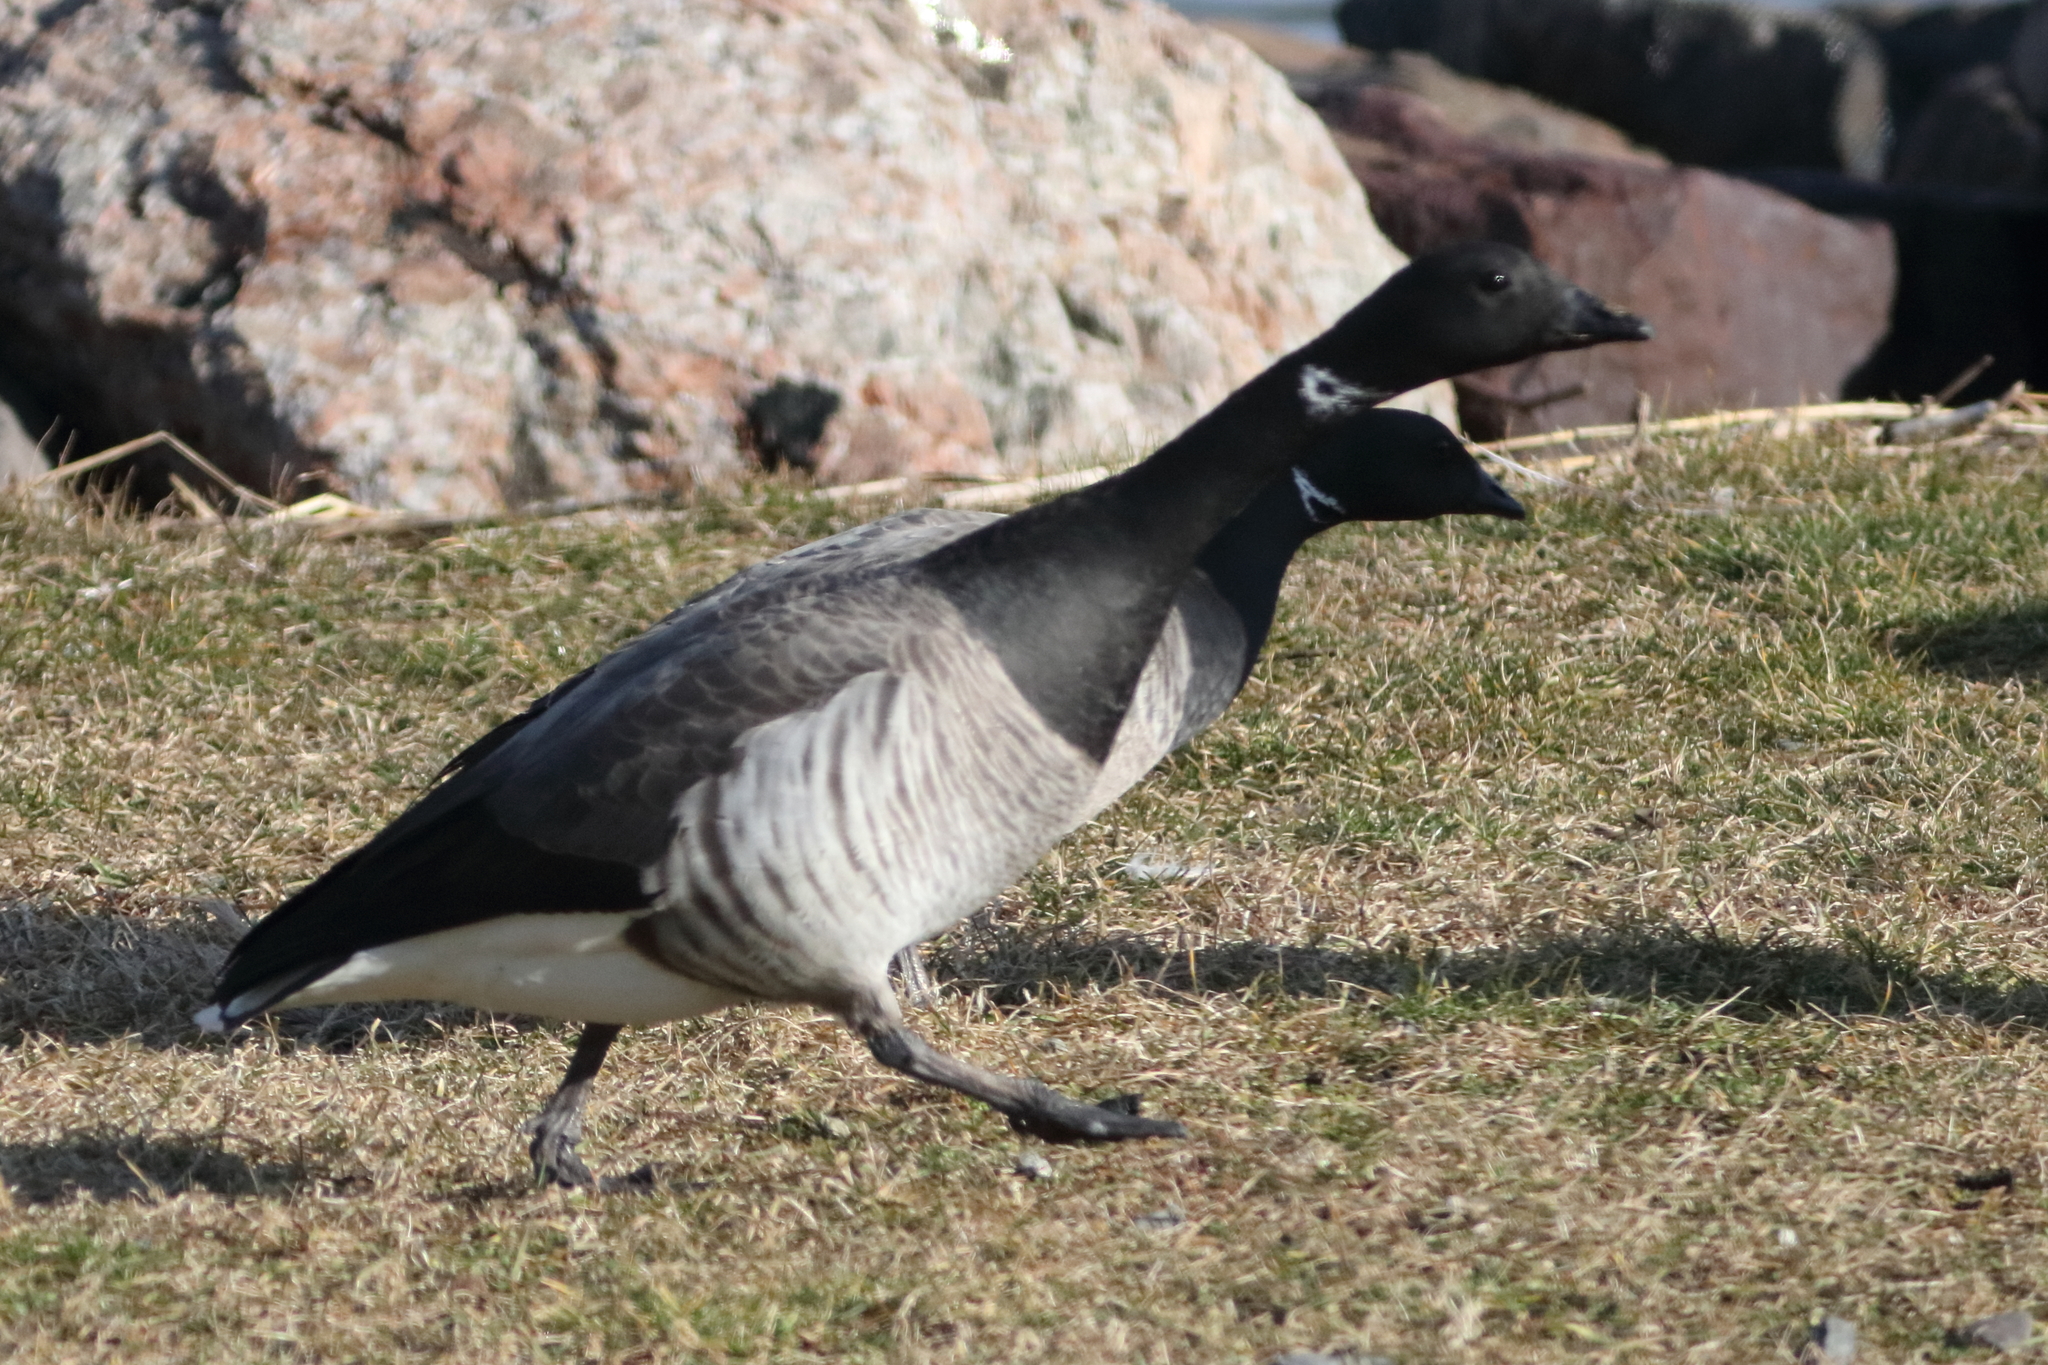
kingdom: Animalia
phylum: Chordata
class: Aves
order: Anseriformes
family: Anatidae
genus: Branta
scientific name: Branta bernicla
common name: Brant goose
